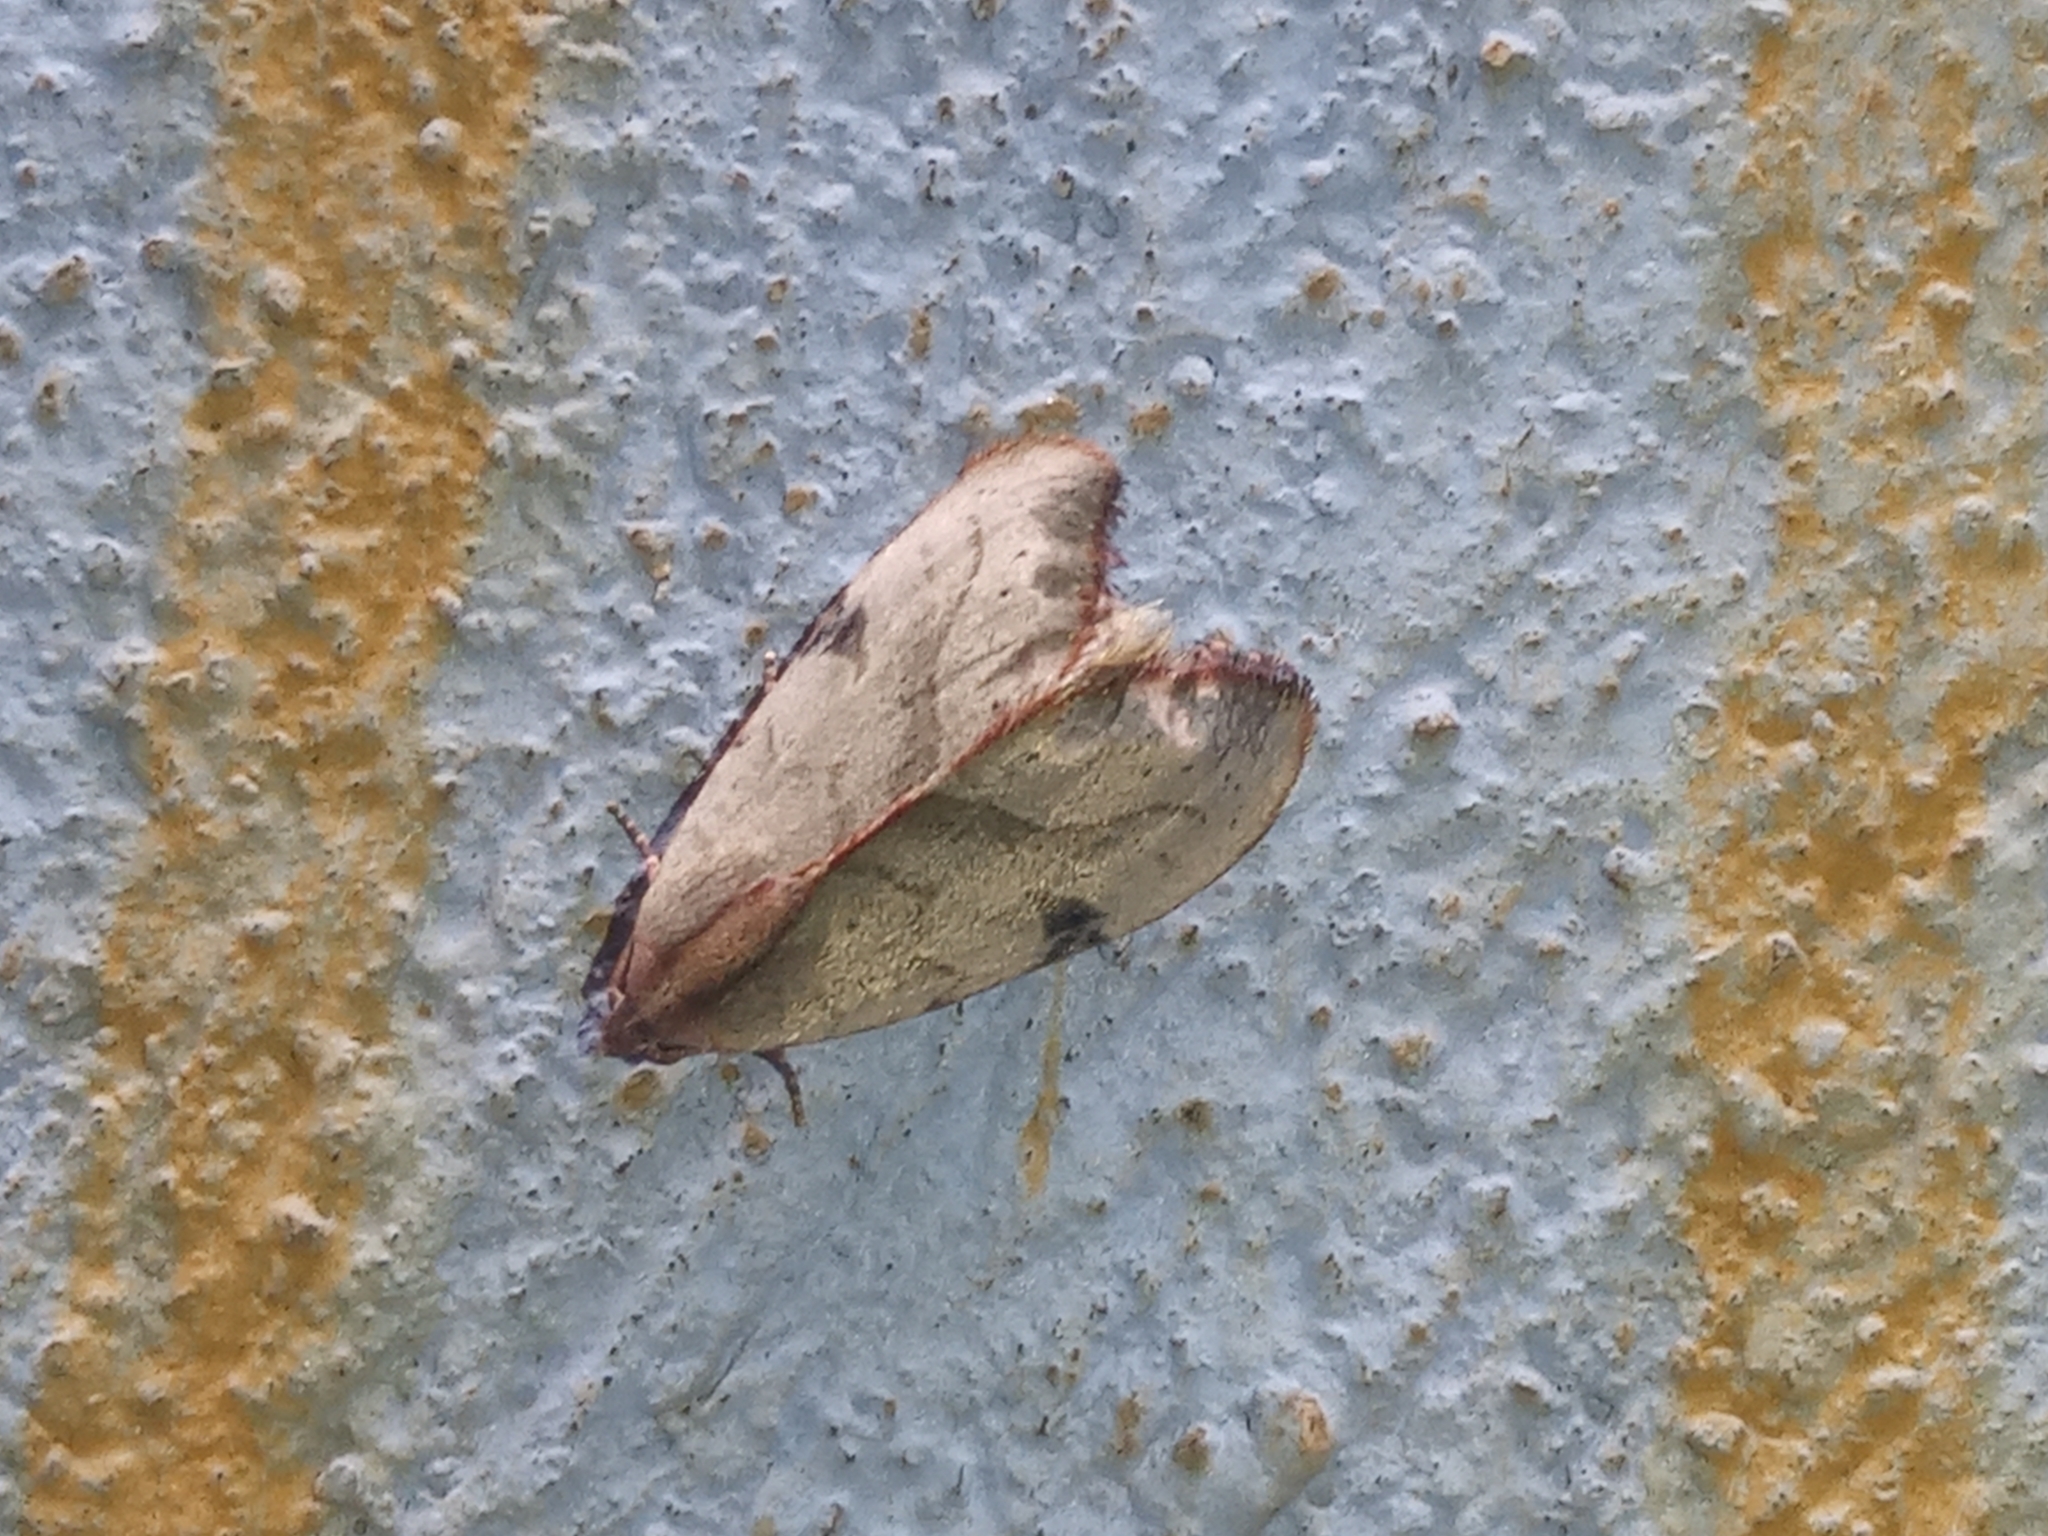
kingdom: Animalia
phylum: Arthropoda
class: Insecta
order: Lepidoptera
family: Noctuidae
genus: Galgula
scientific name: Galgula partita
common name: Wedgeling
